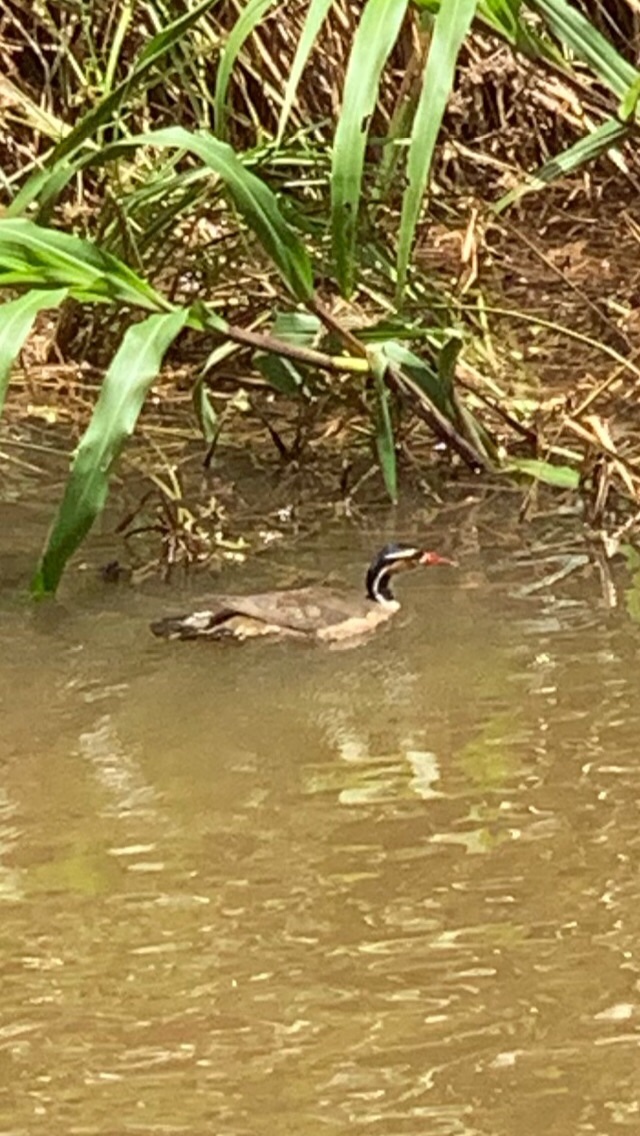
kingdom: Animalia
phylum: Chordata
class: Aves
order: Gruiformes
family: Heliornithidae
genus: Heliornis
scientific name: Heliornis fulica
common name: Sungrebe
